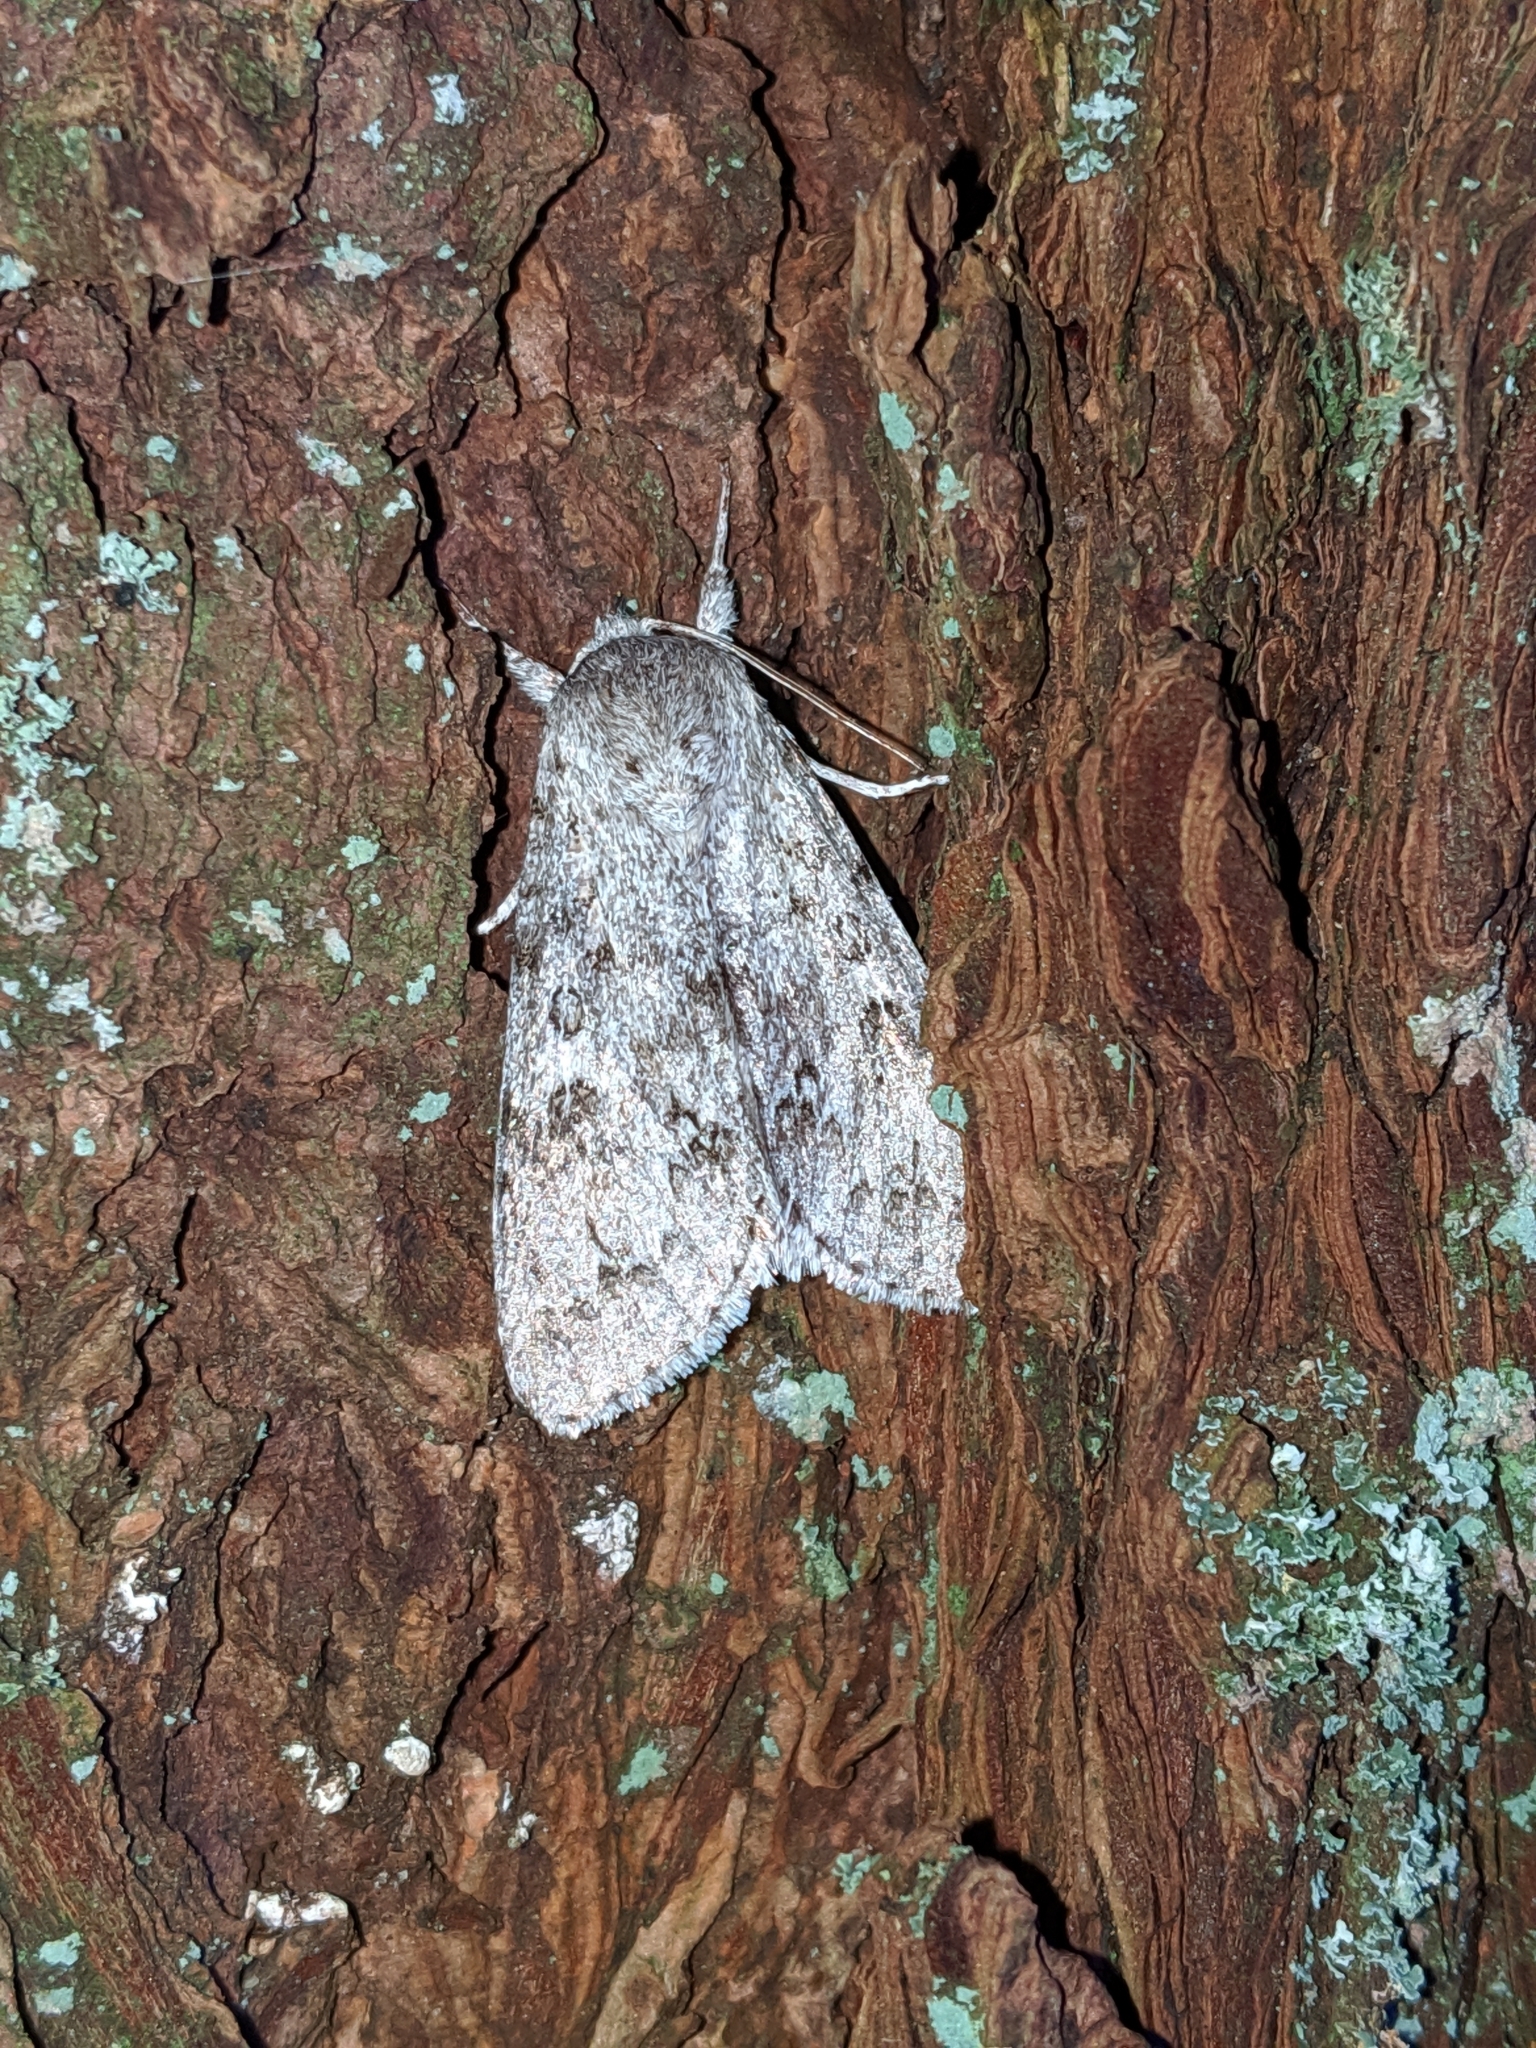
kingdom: Animalia
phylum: Arthropoda
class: Insecta
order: Lepidoptera
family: Noctuidae
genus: Acronicta
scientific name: Acronicta insita
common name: Large gray dagger
